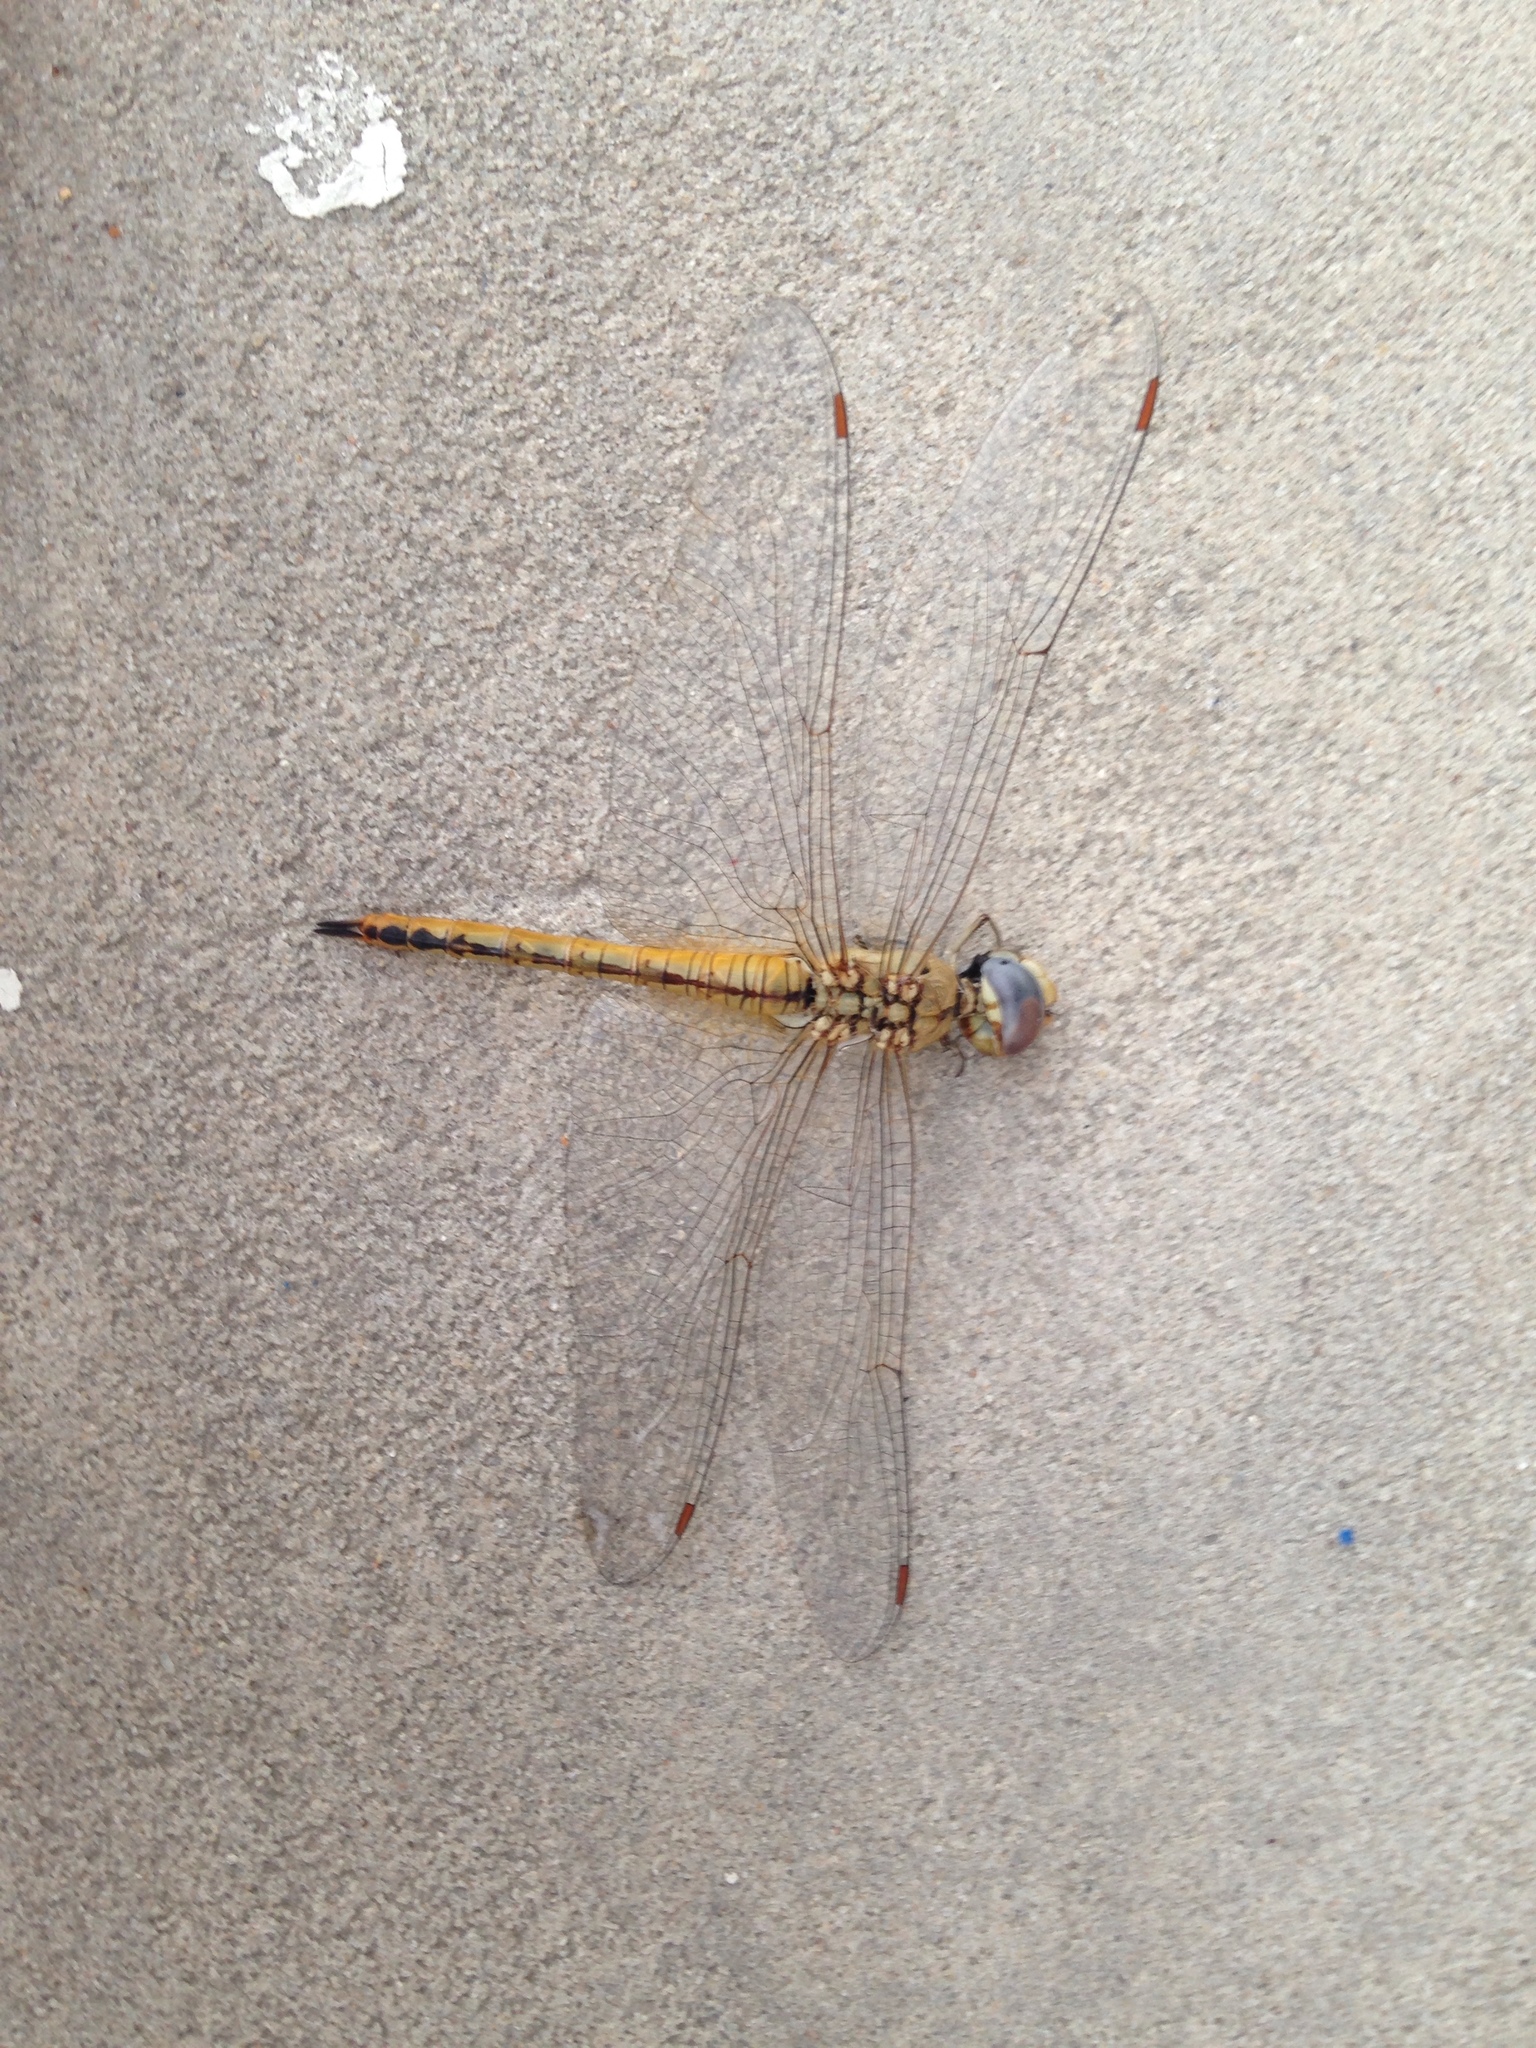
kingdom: Animalia
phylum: Arthropoda
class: Insecta
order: Odonata
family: Libellulidae
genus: Pantala
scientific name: Pantala flavescens
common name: Wandering glider
